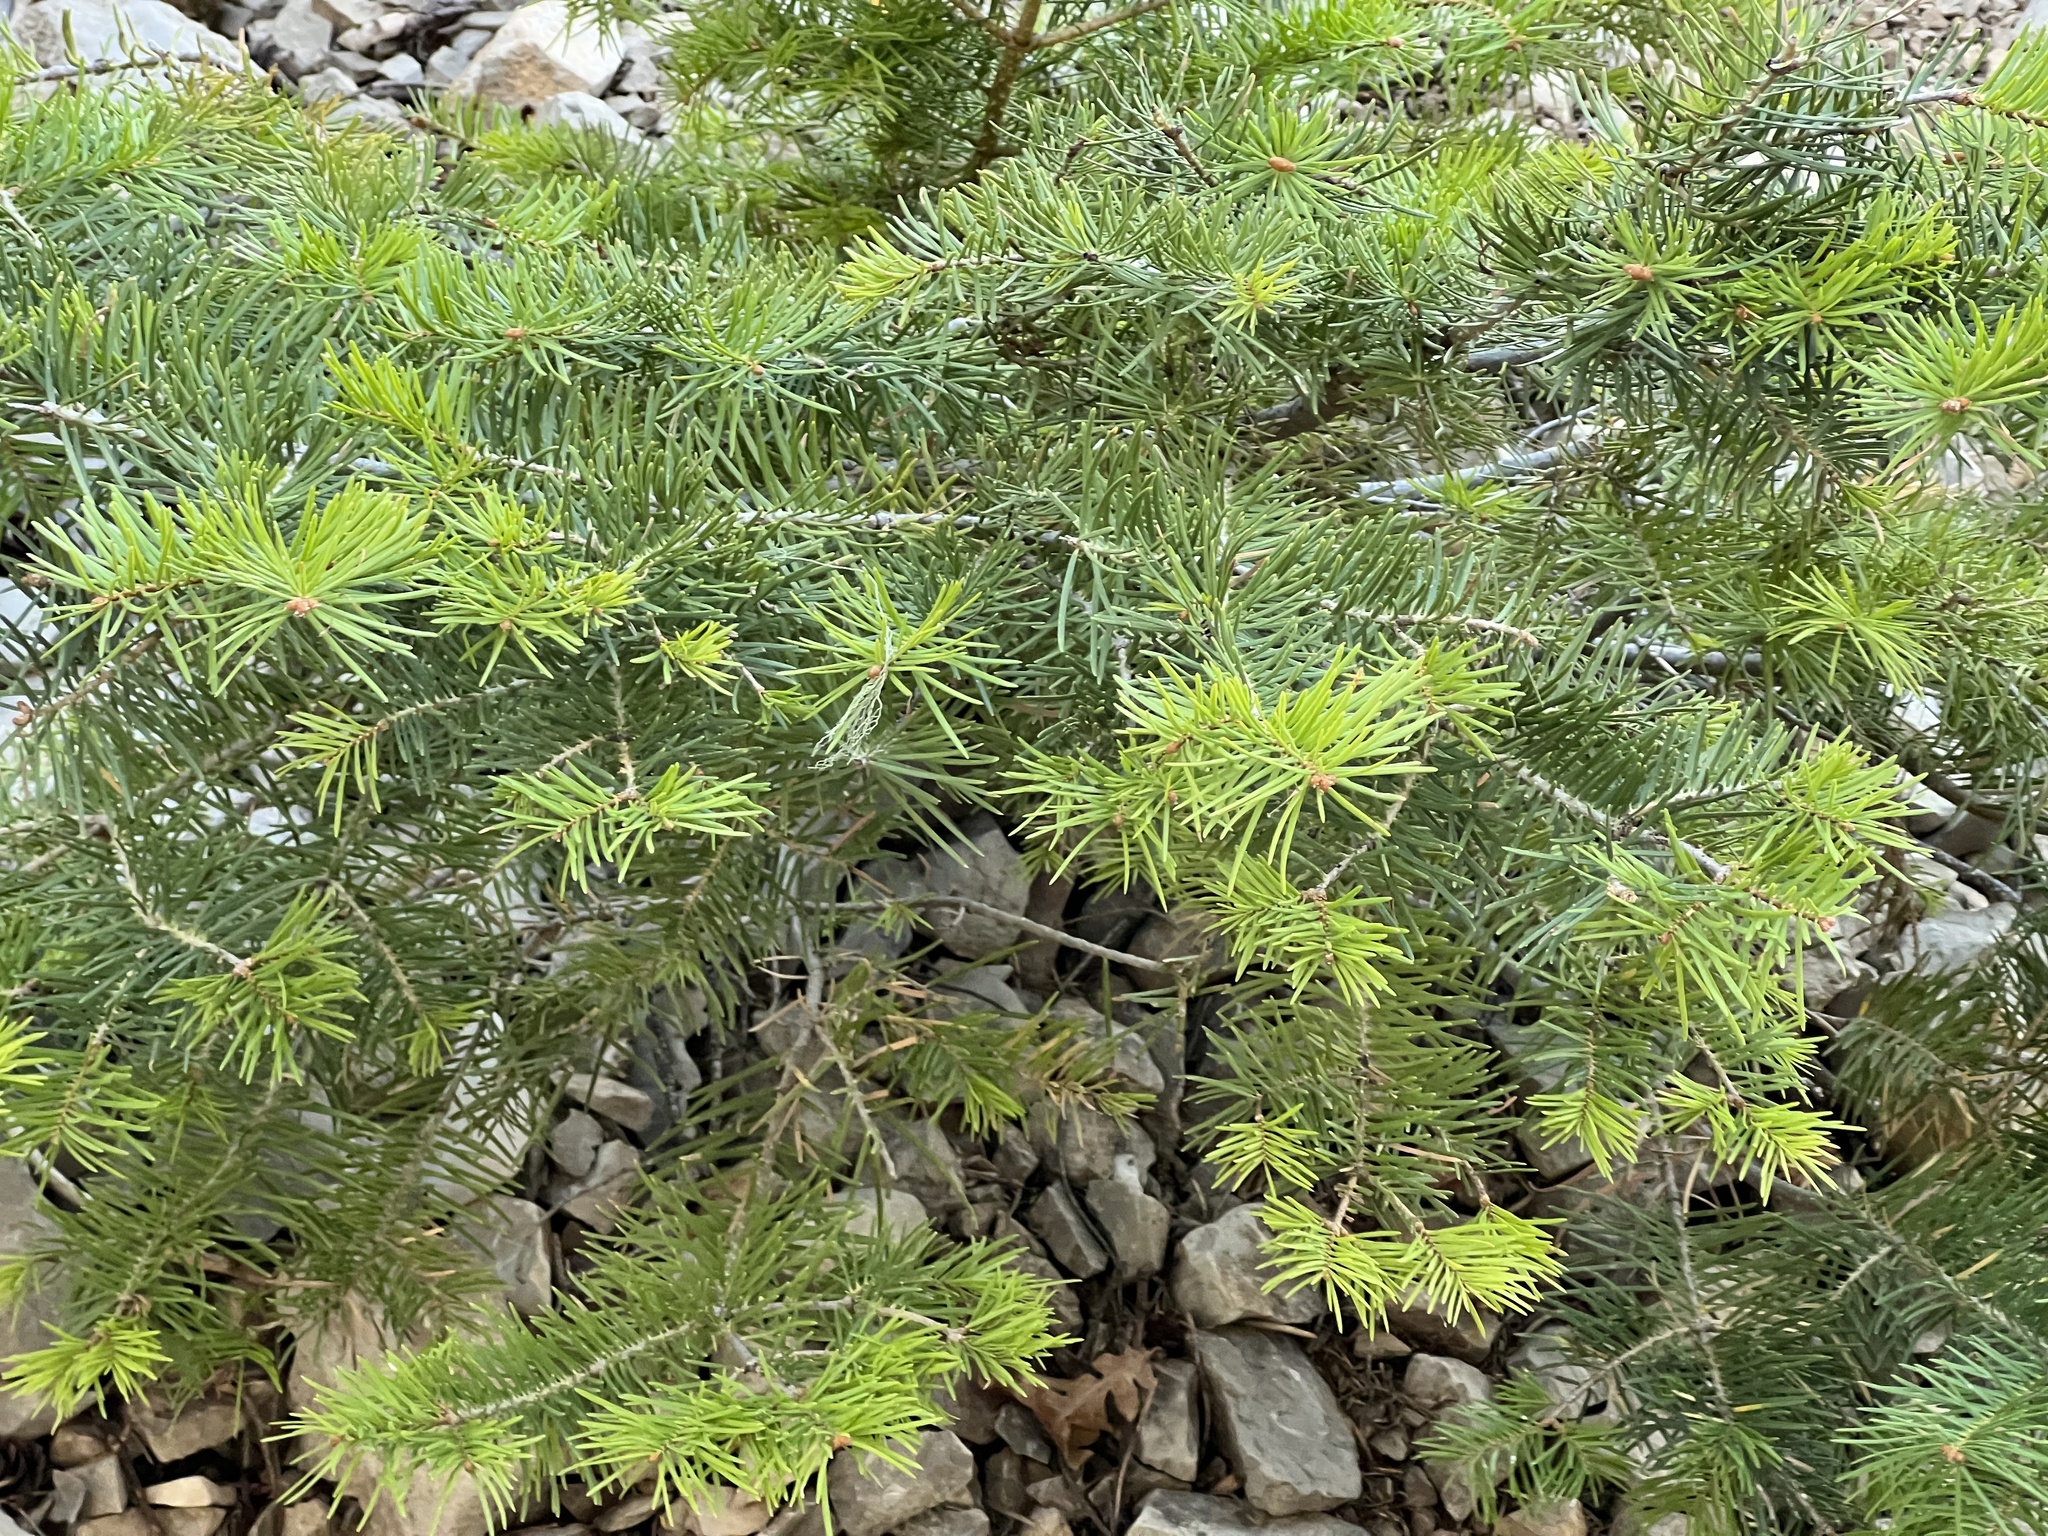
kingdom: Plantae
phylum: Tracheophyta
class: Pinopsida
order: Pinales
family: Pinaceae
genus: Abies
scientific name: Abies concolor
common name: Colorado fir
